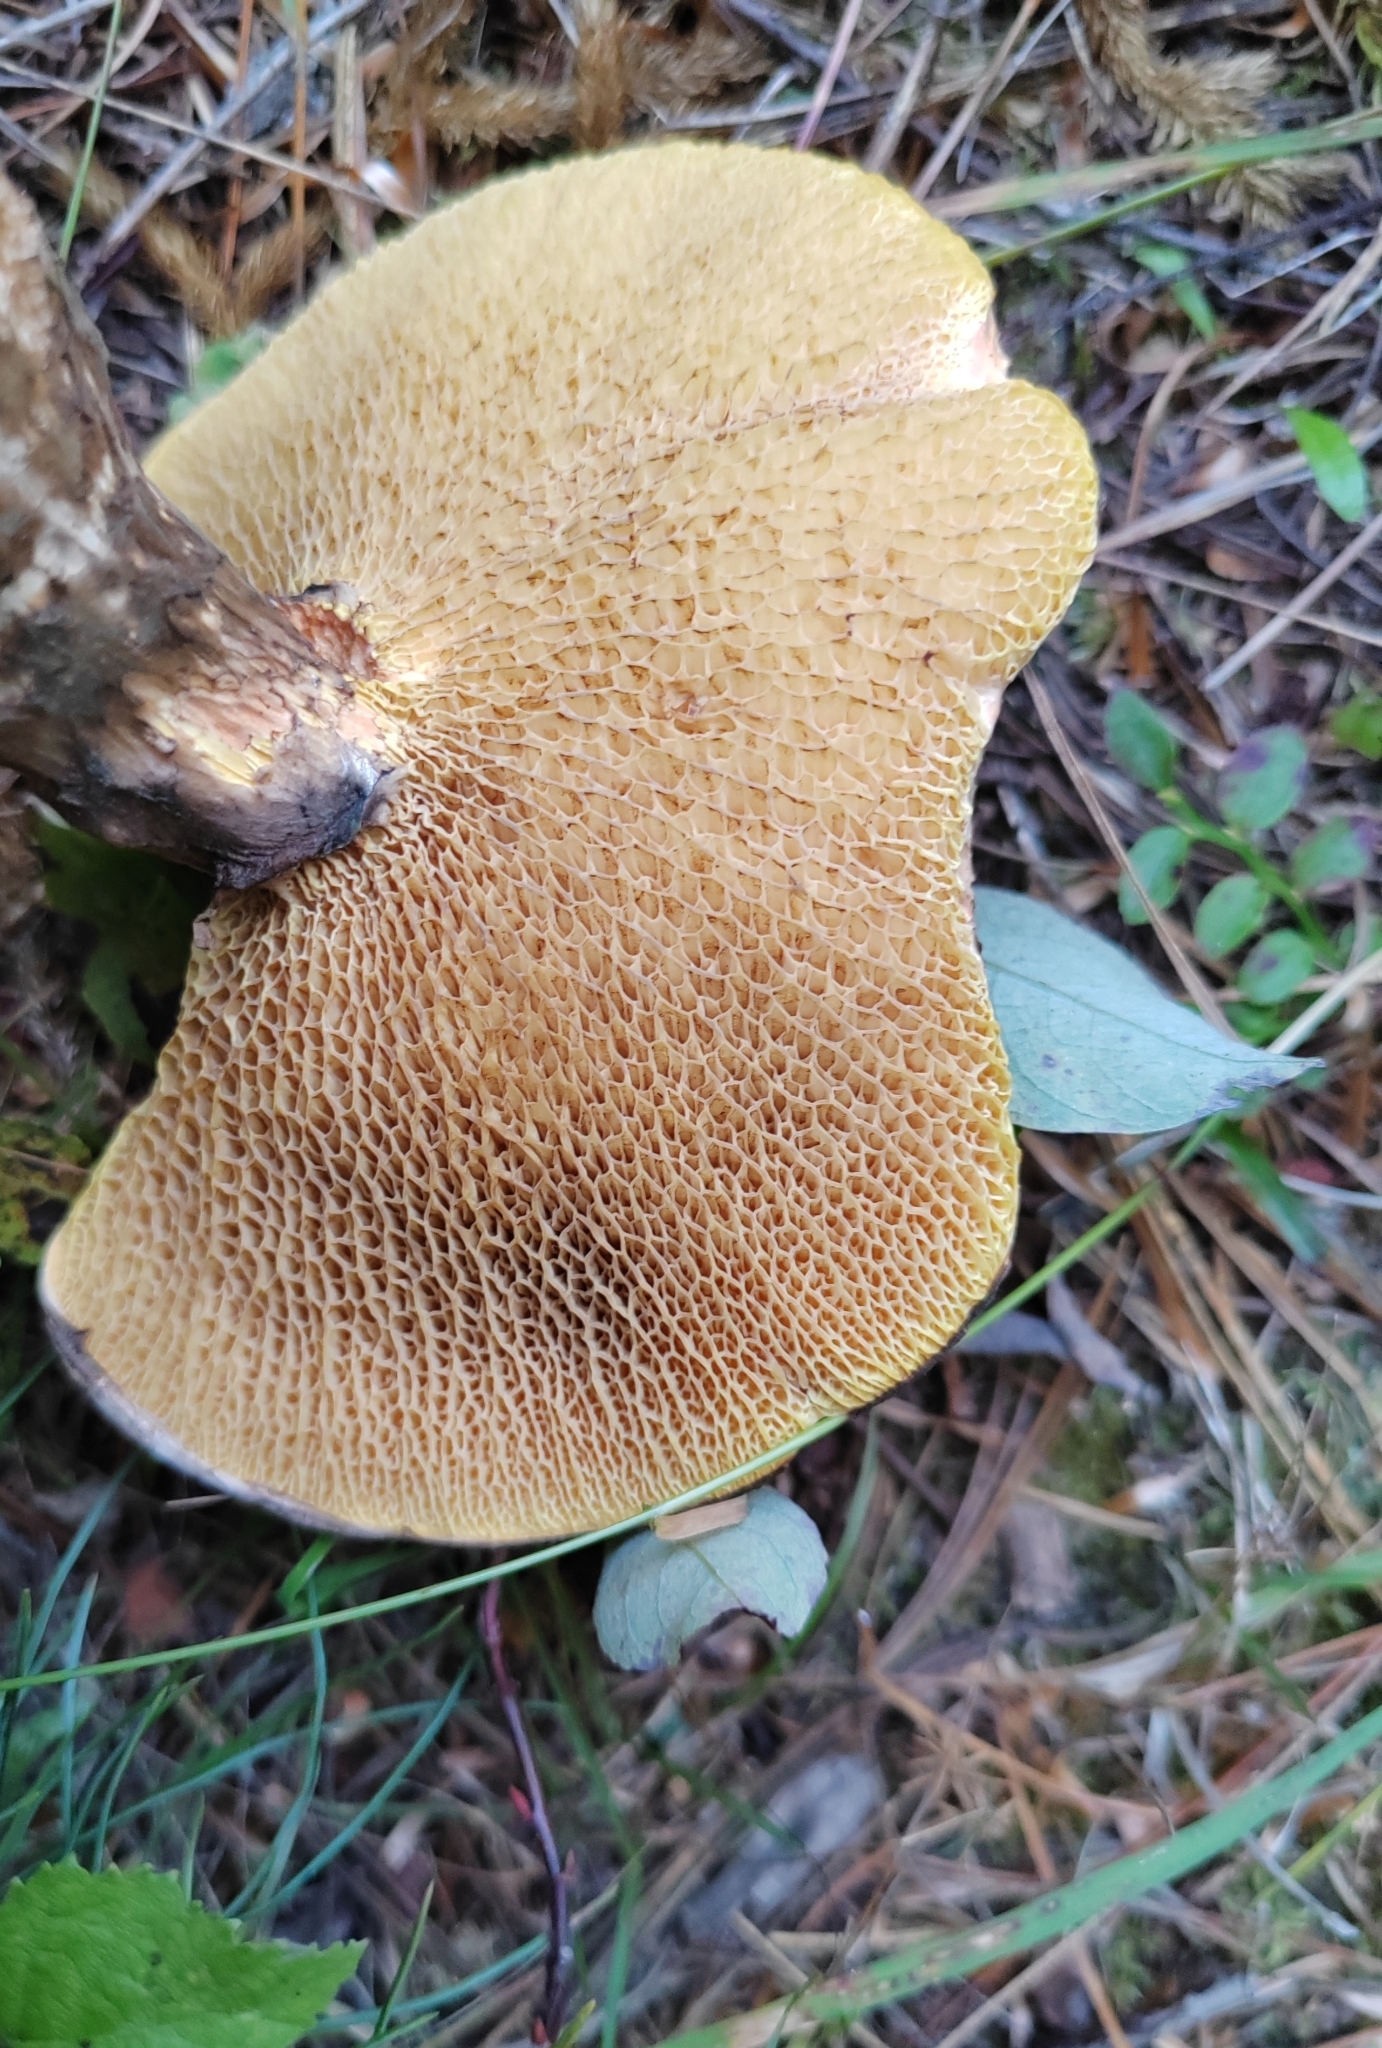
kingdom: Fungi
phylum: Basidiomycota
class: Agaricomycetes
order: Boletales
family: Suillaceae
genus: Suillus
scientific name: Suillus spraguei
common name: Painted suillus
